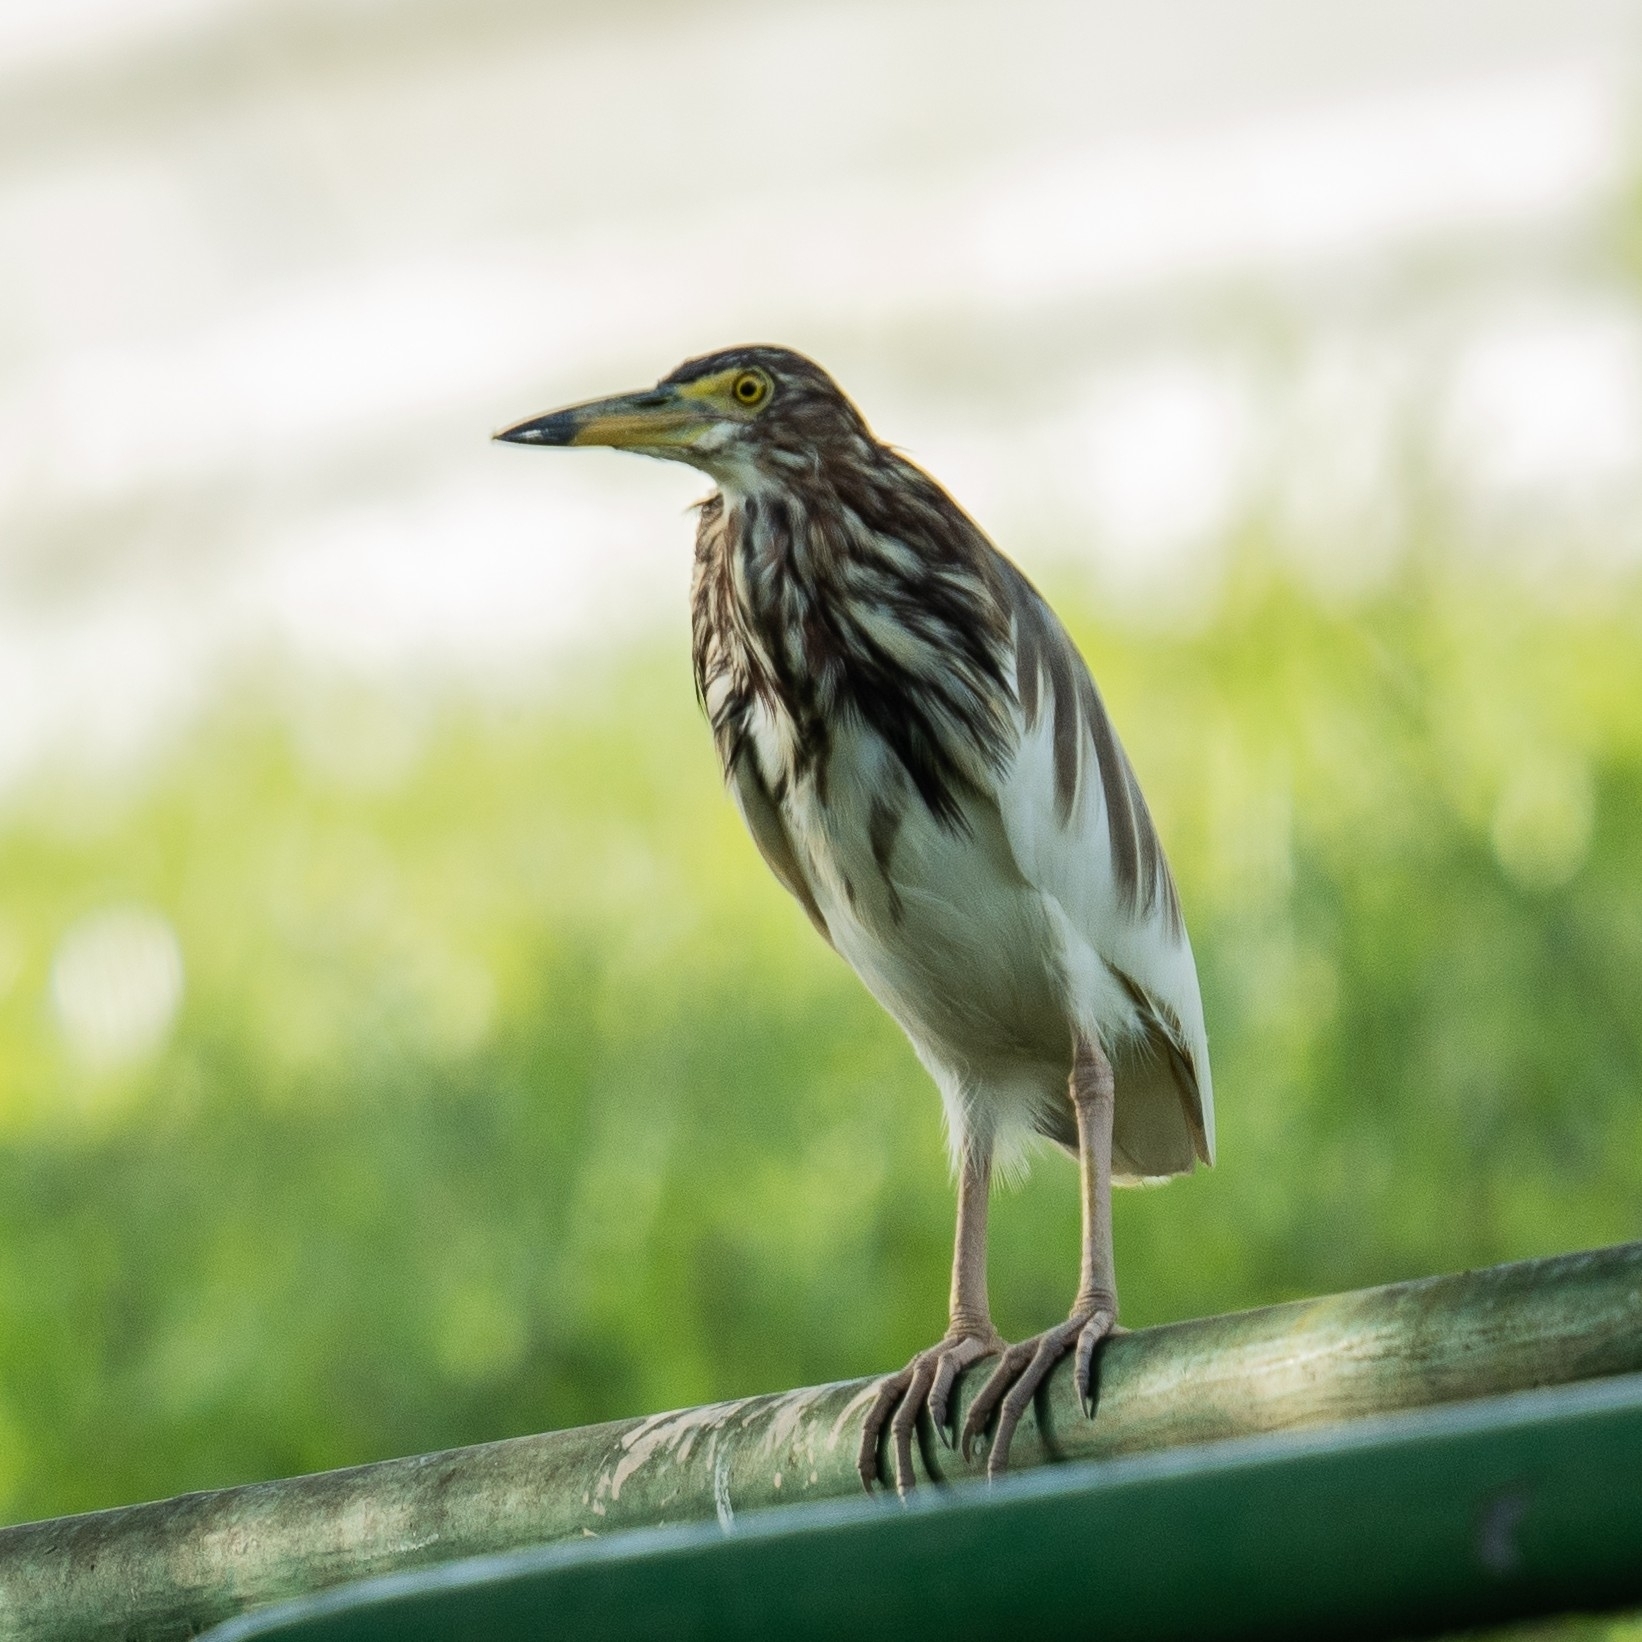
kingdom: Animalia
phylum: Chordata
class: Aves
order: Pelecaniformes
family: Ardeidae
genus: Ardeola
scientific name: Ardeola bacchus
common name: Chinese pond heron
